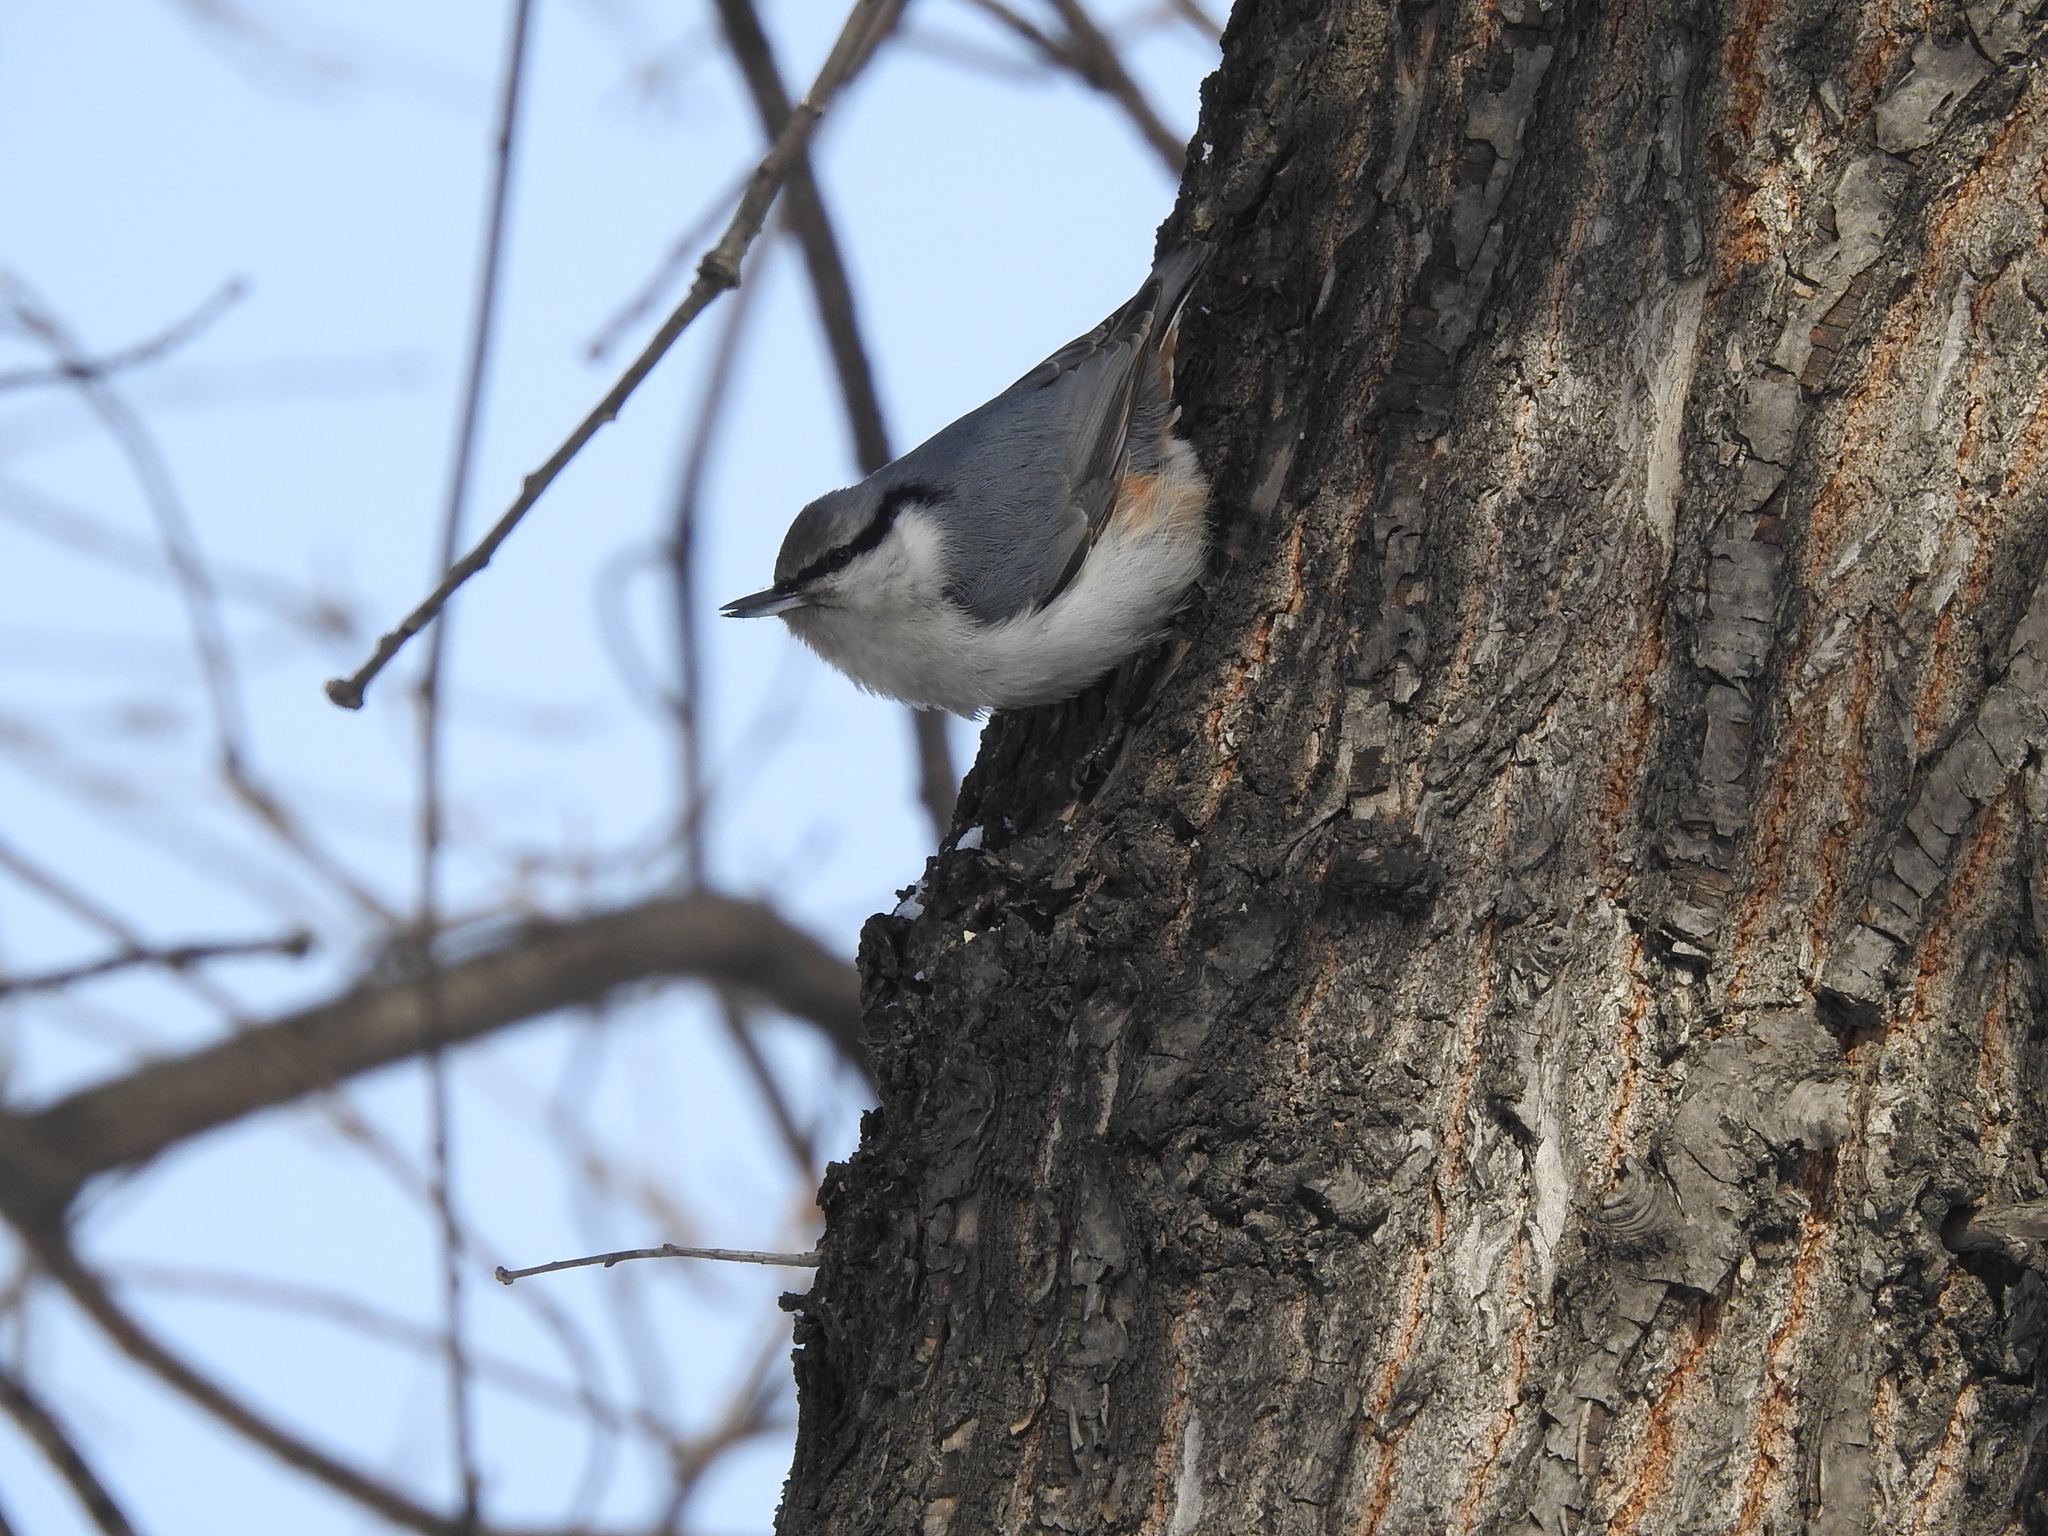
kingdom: Animalia
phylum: Chordata
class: Aves
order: Passeriformes
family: Sittidae
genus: Sitta
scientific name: Sitta europaea
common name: Eurasian nuthatch
